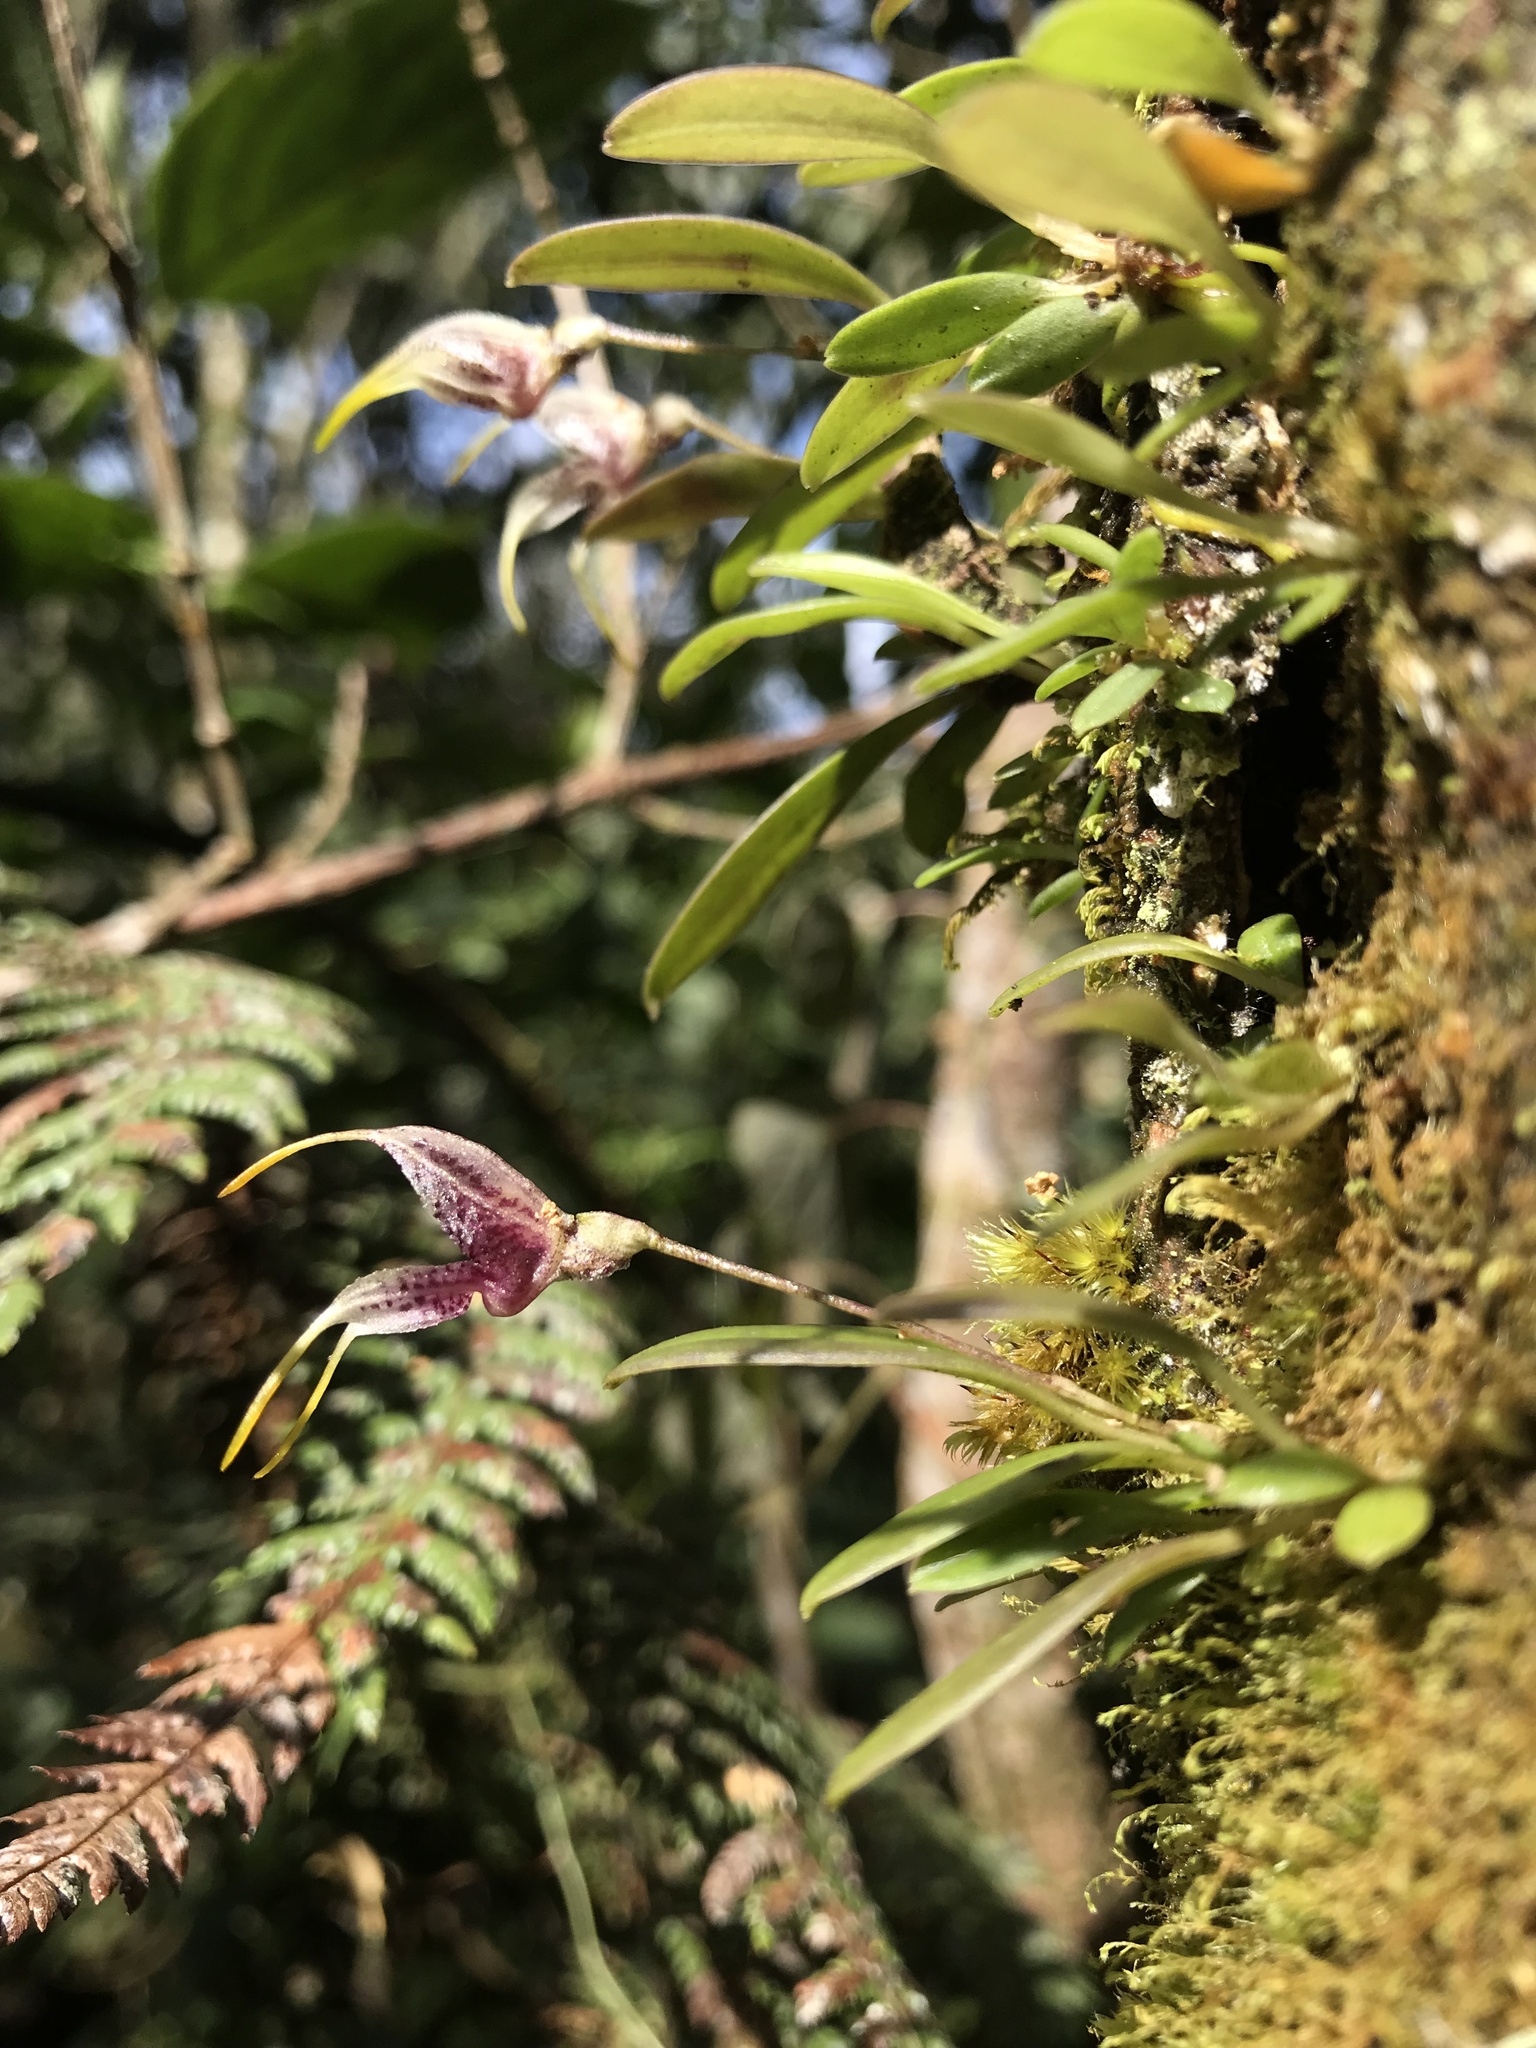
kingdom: Plantae
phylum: Tracheophyta
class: Liliopsida
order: Asparagales
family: Orchidaceae
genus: Masdevallia
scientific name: Masdevallia amanda
